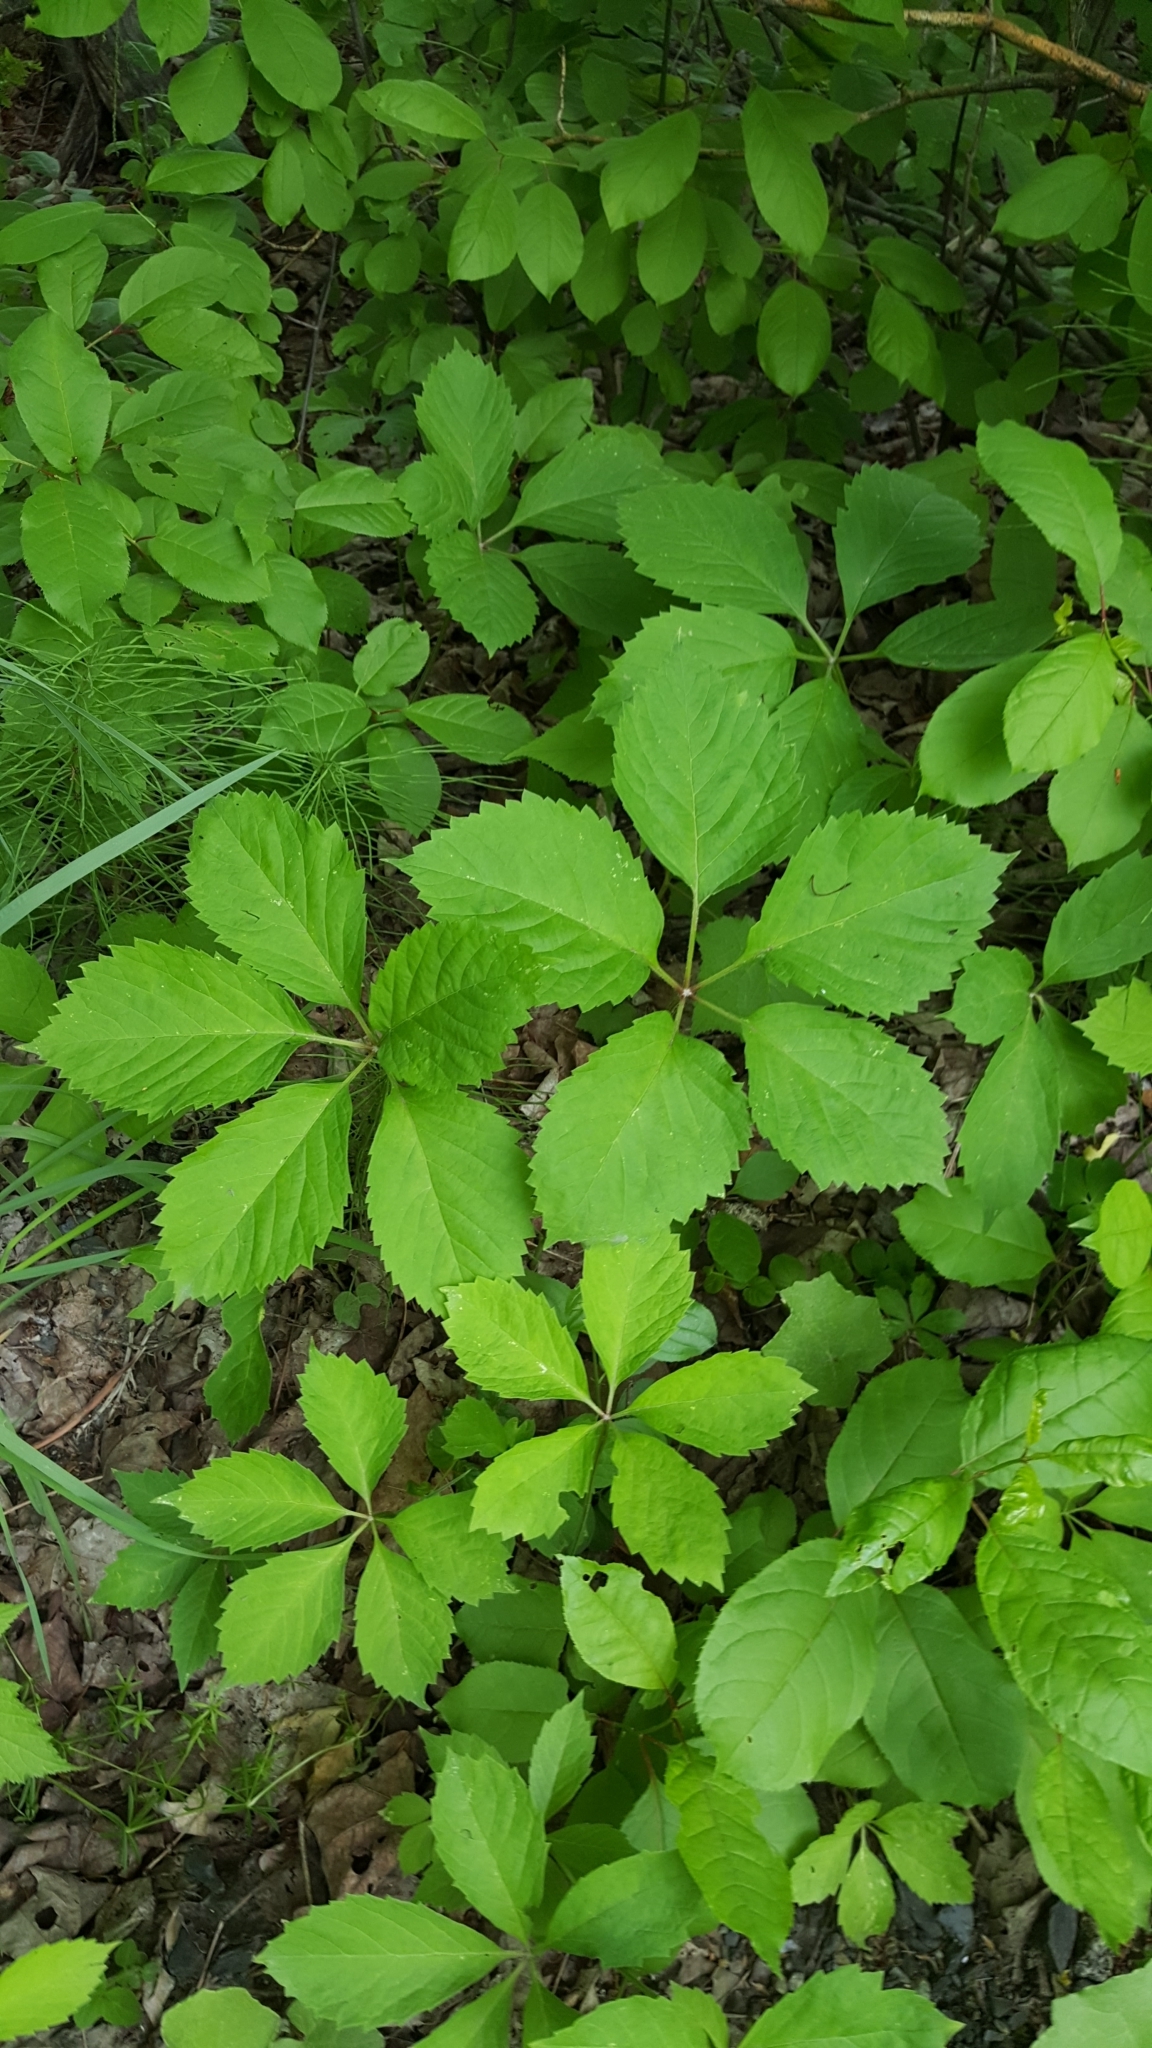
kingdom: Plantae
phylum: Tracheophyta
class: Magnoliopsida
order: Vitales
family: Vitaceae
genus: Parthenocissus
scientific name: Parthenocissus inserta
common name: False virginia-creeper
